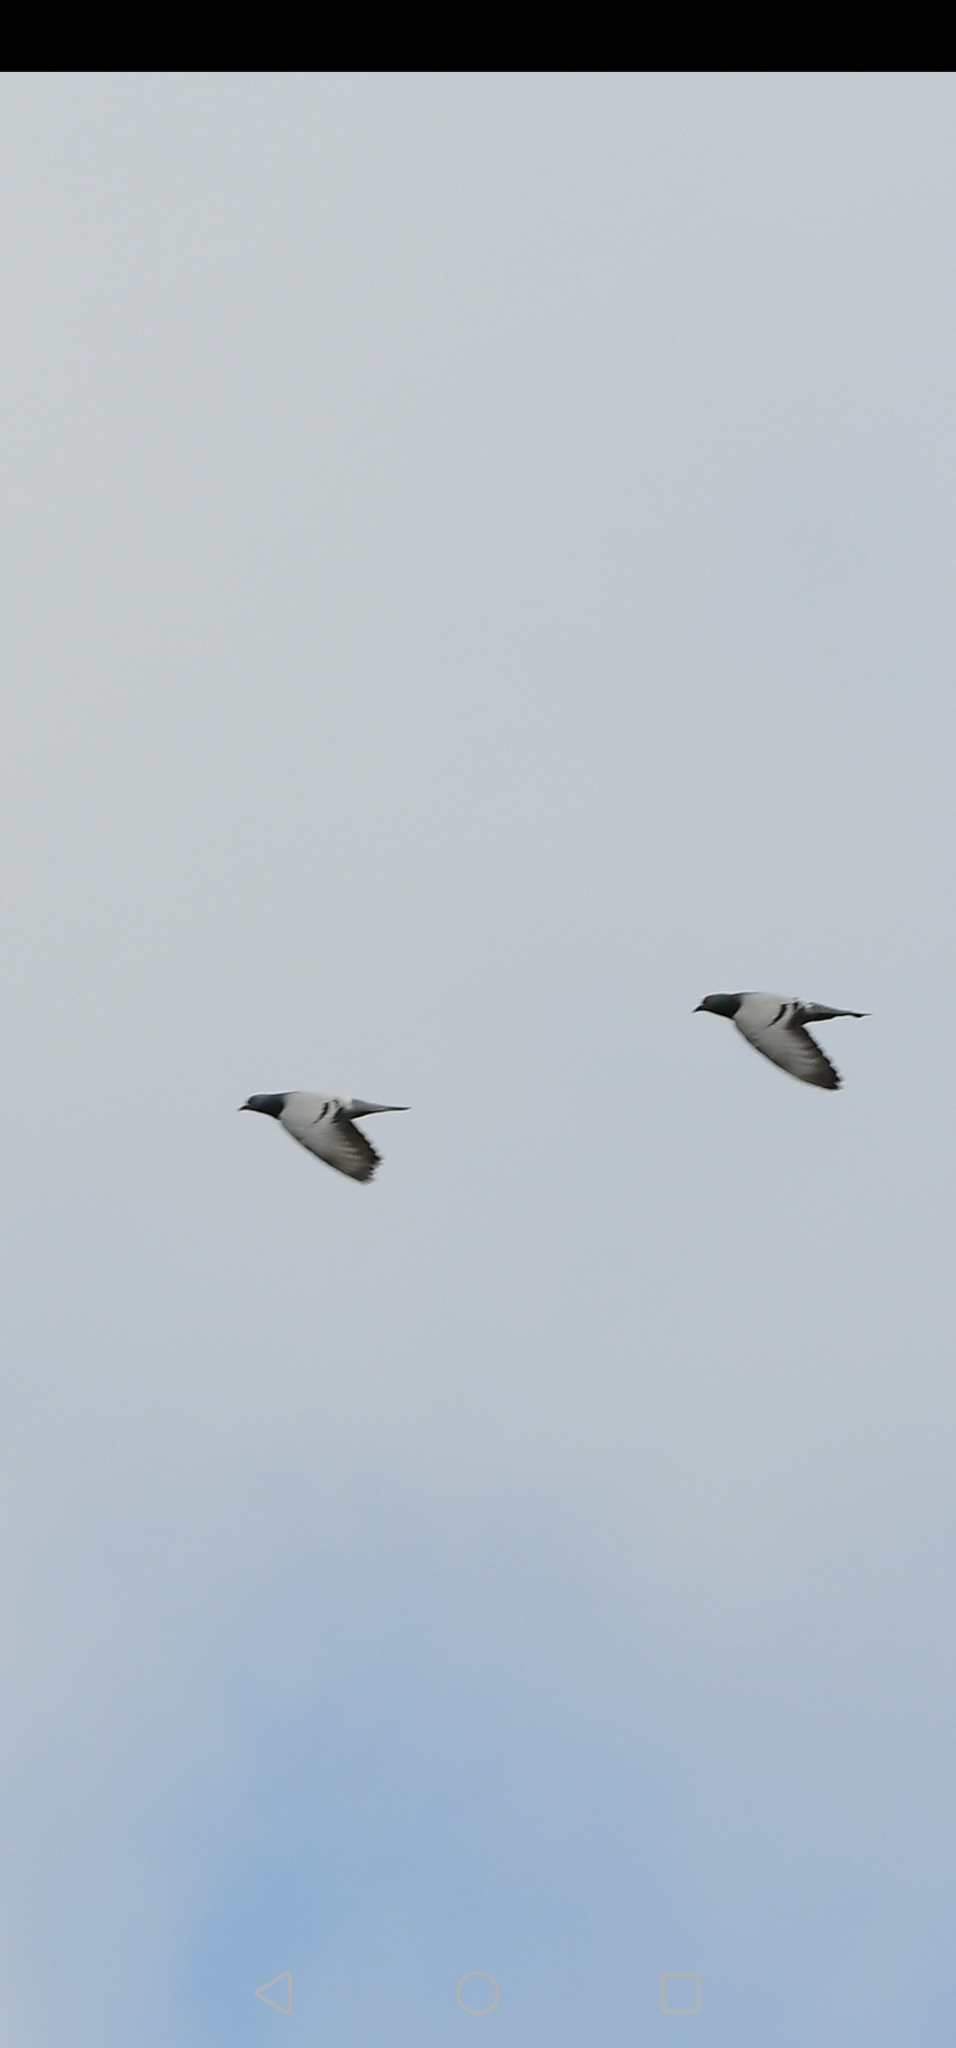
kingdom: Animalia
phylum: Chordata
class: Aves
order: Columbiformes
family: Columbidae
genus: Columba
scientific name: Columba livia
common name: Rock pigeon
